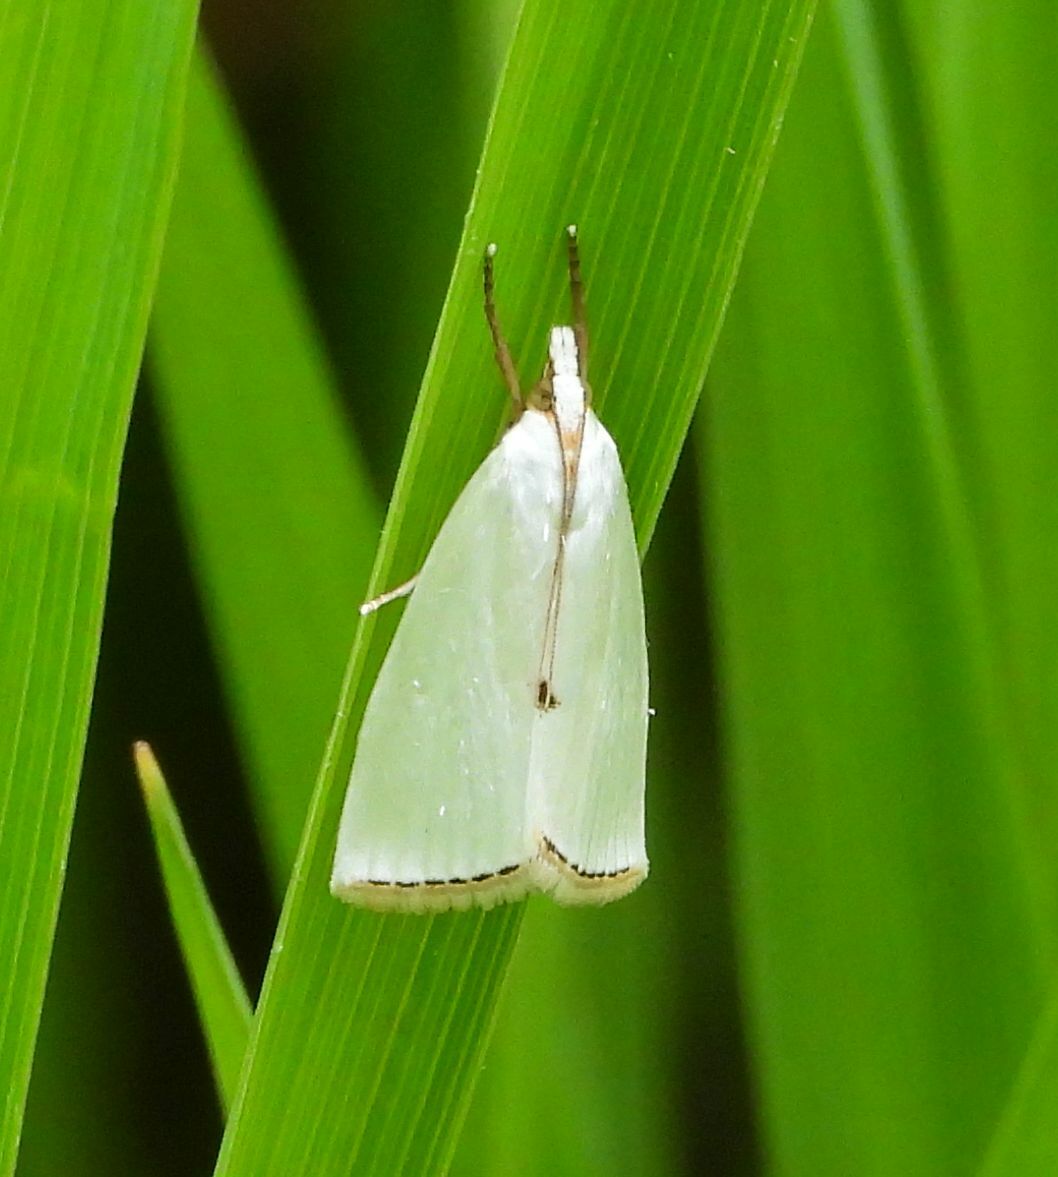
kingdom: Animalia
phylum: Arthropoda
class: Insecta
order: Lepidoptera
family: Crambidae
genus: Argyria
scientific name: Argyria nivalis
